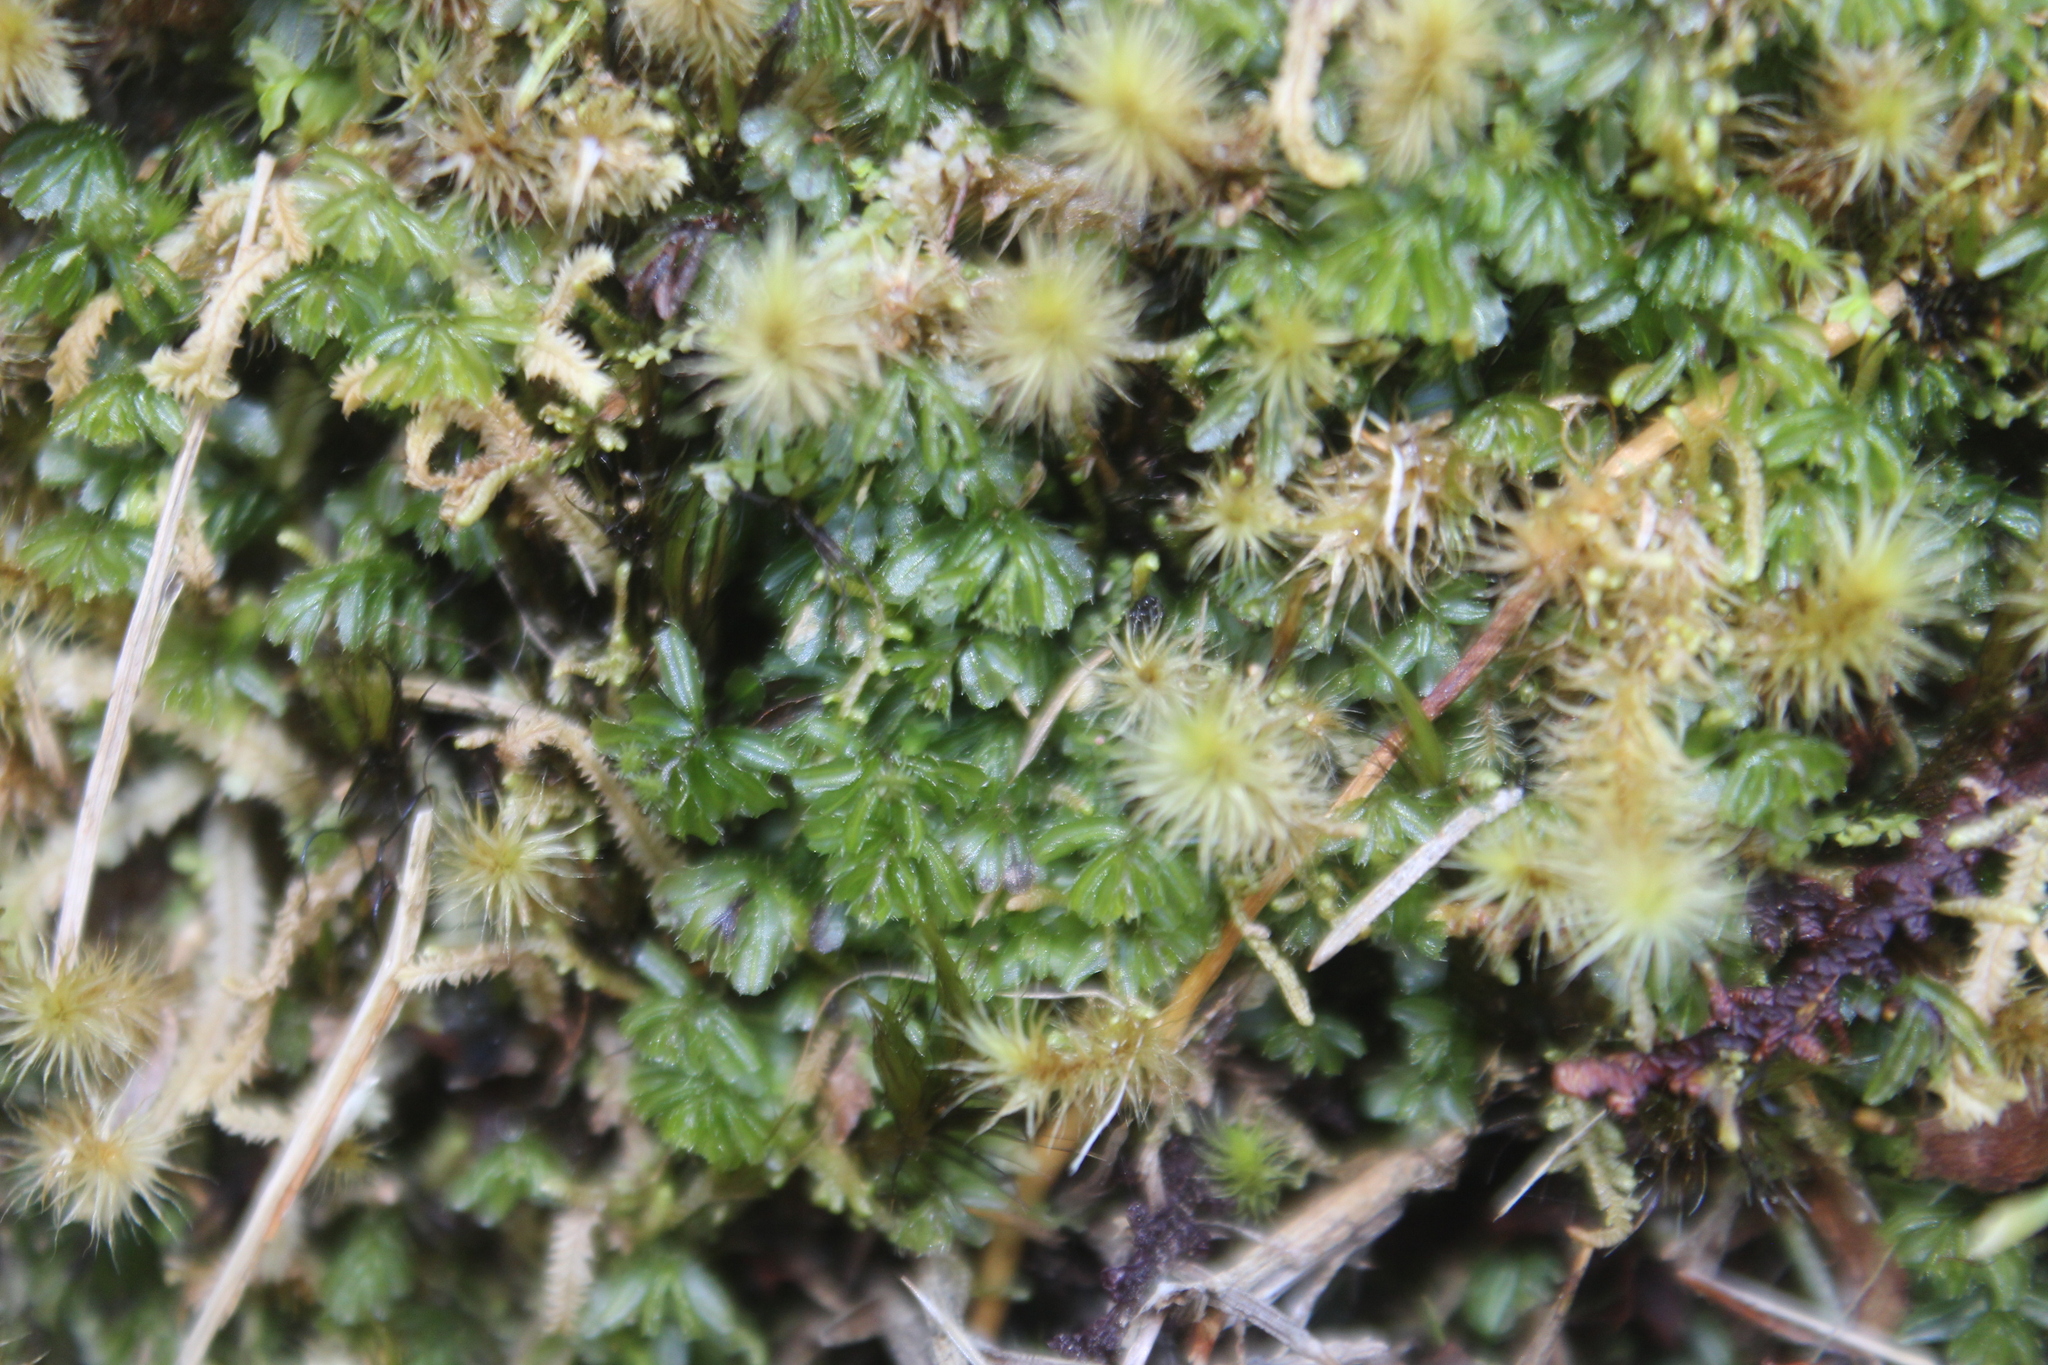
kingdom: Plantae
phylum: Tracheophyta
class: Polypodiopsida
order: Hymenophyllales
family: Hymenophyllaceae
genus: Hymenophyllum
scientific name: Hymenophyllum minimum
